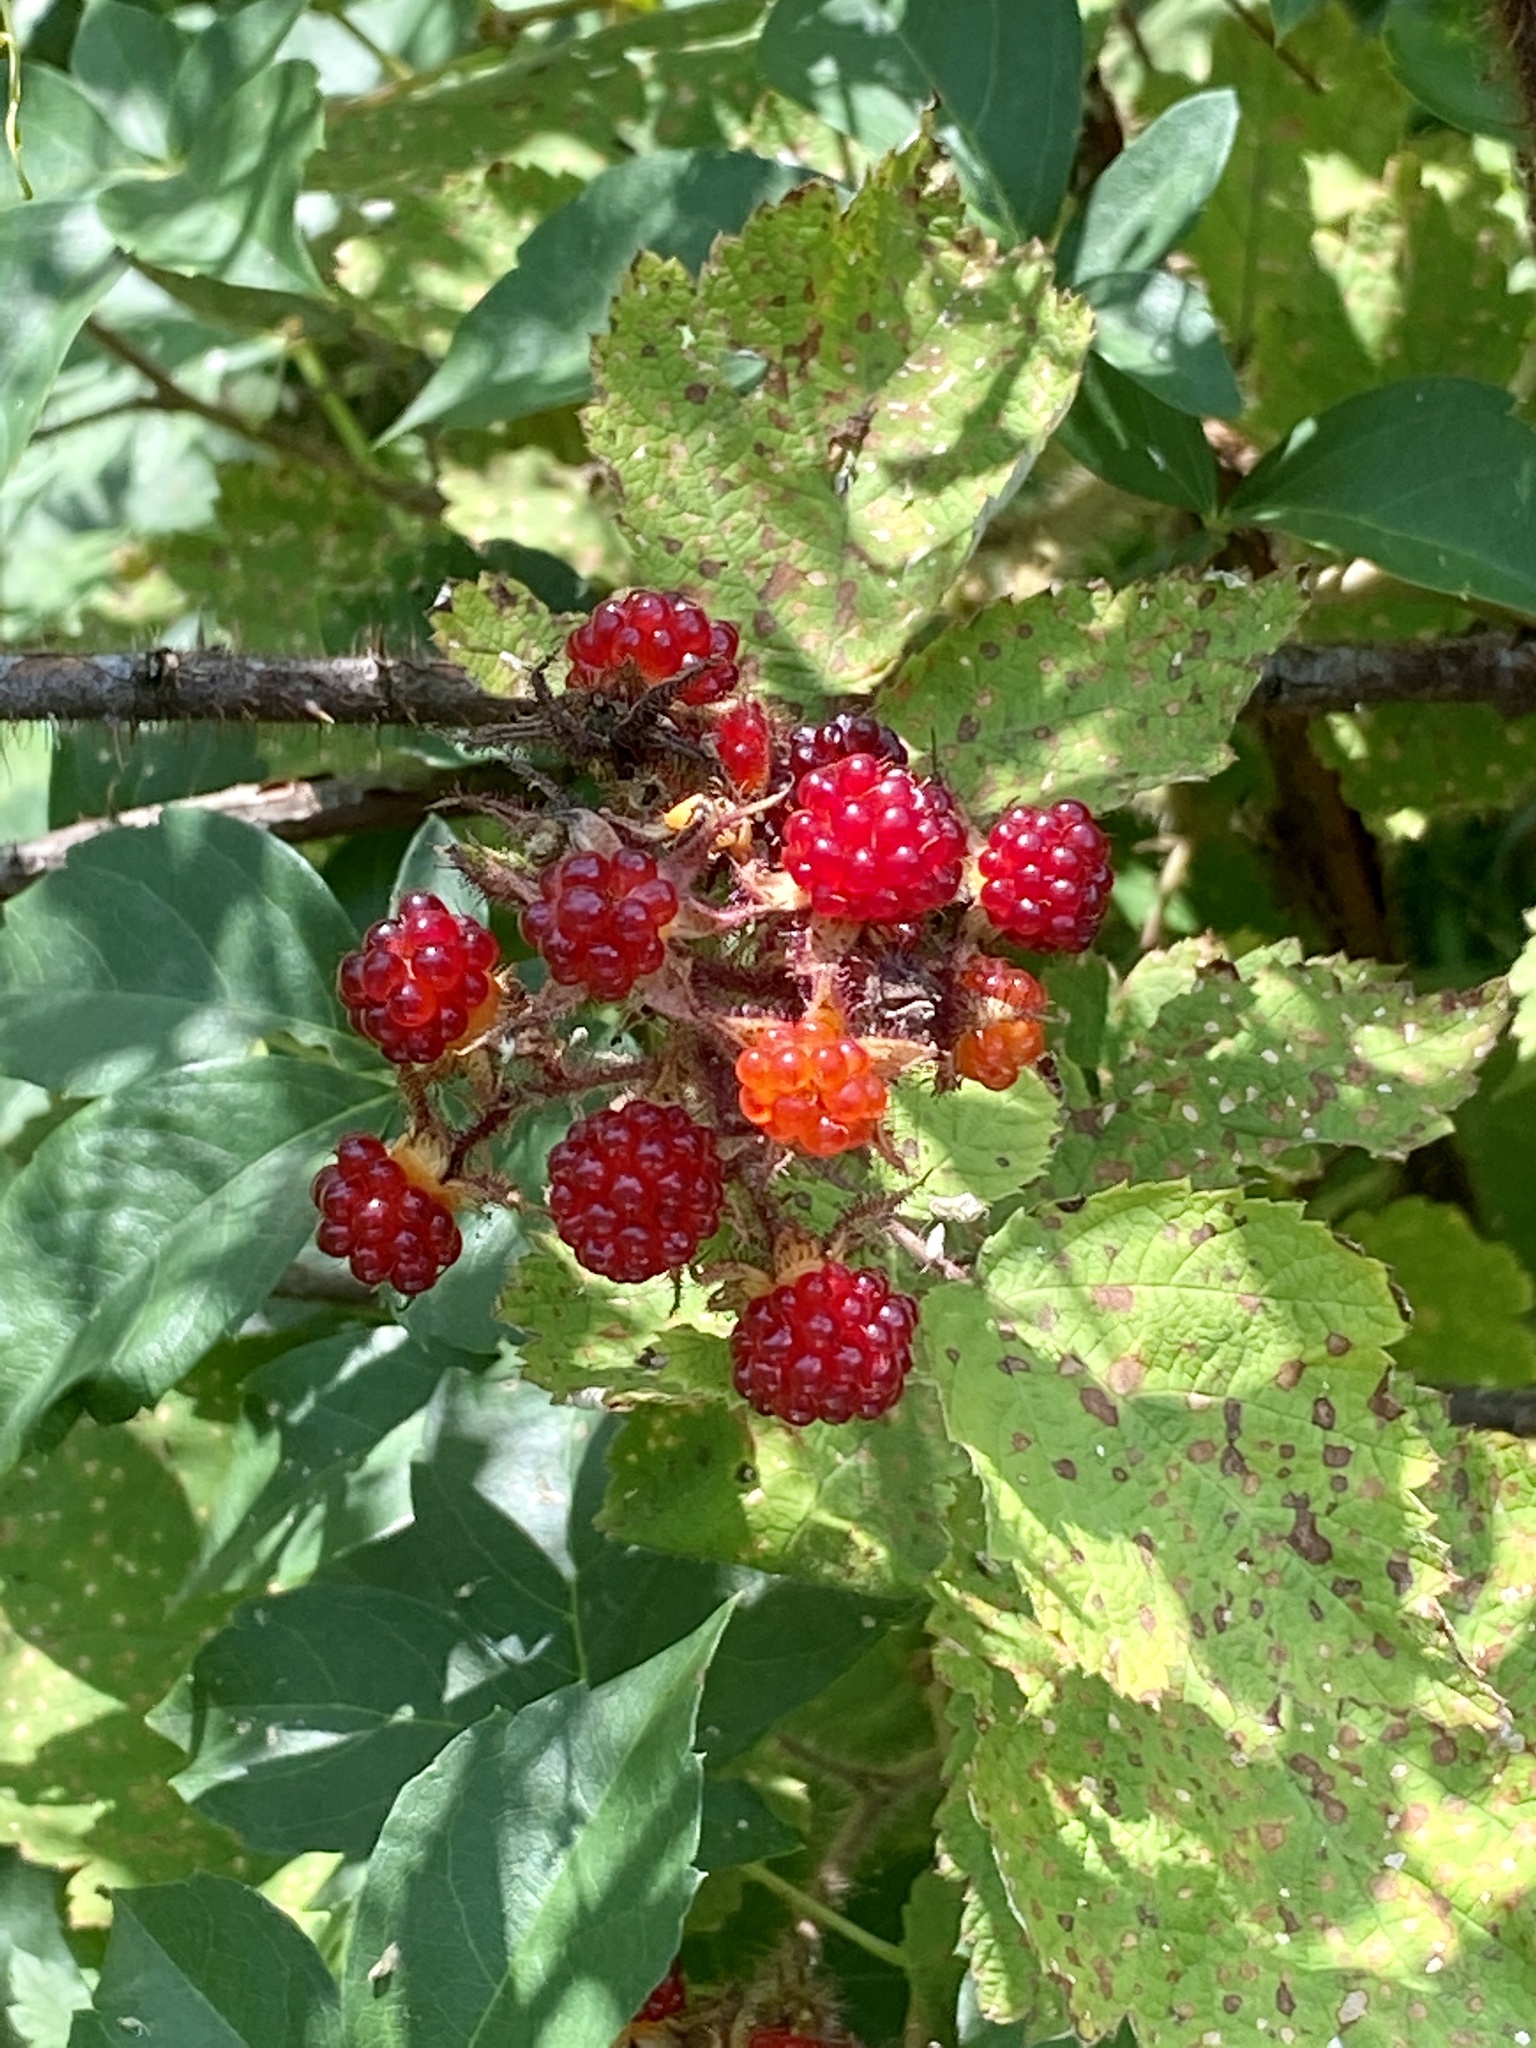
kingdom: Plantae
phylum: Tracheophyta
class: Magnoliopsida
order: Rosales
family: Rosaceae
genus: Rubus
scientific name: Rubus phoenicolasius
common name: Japanese wineberry
